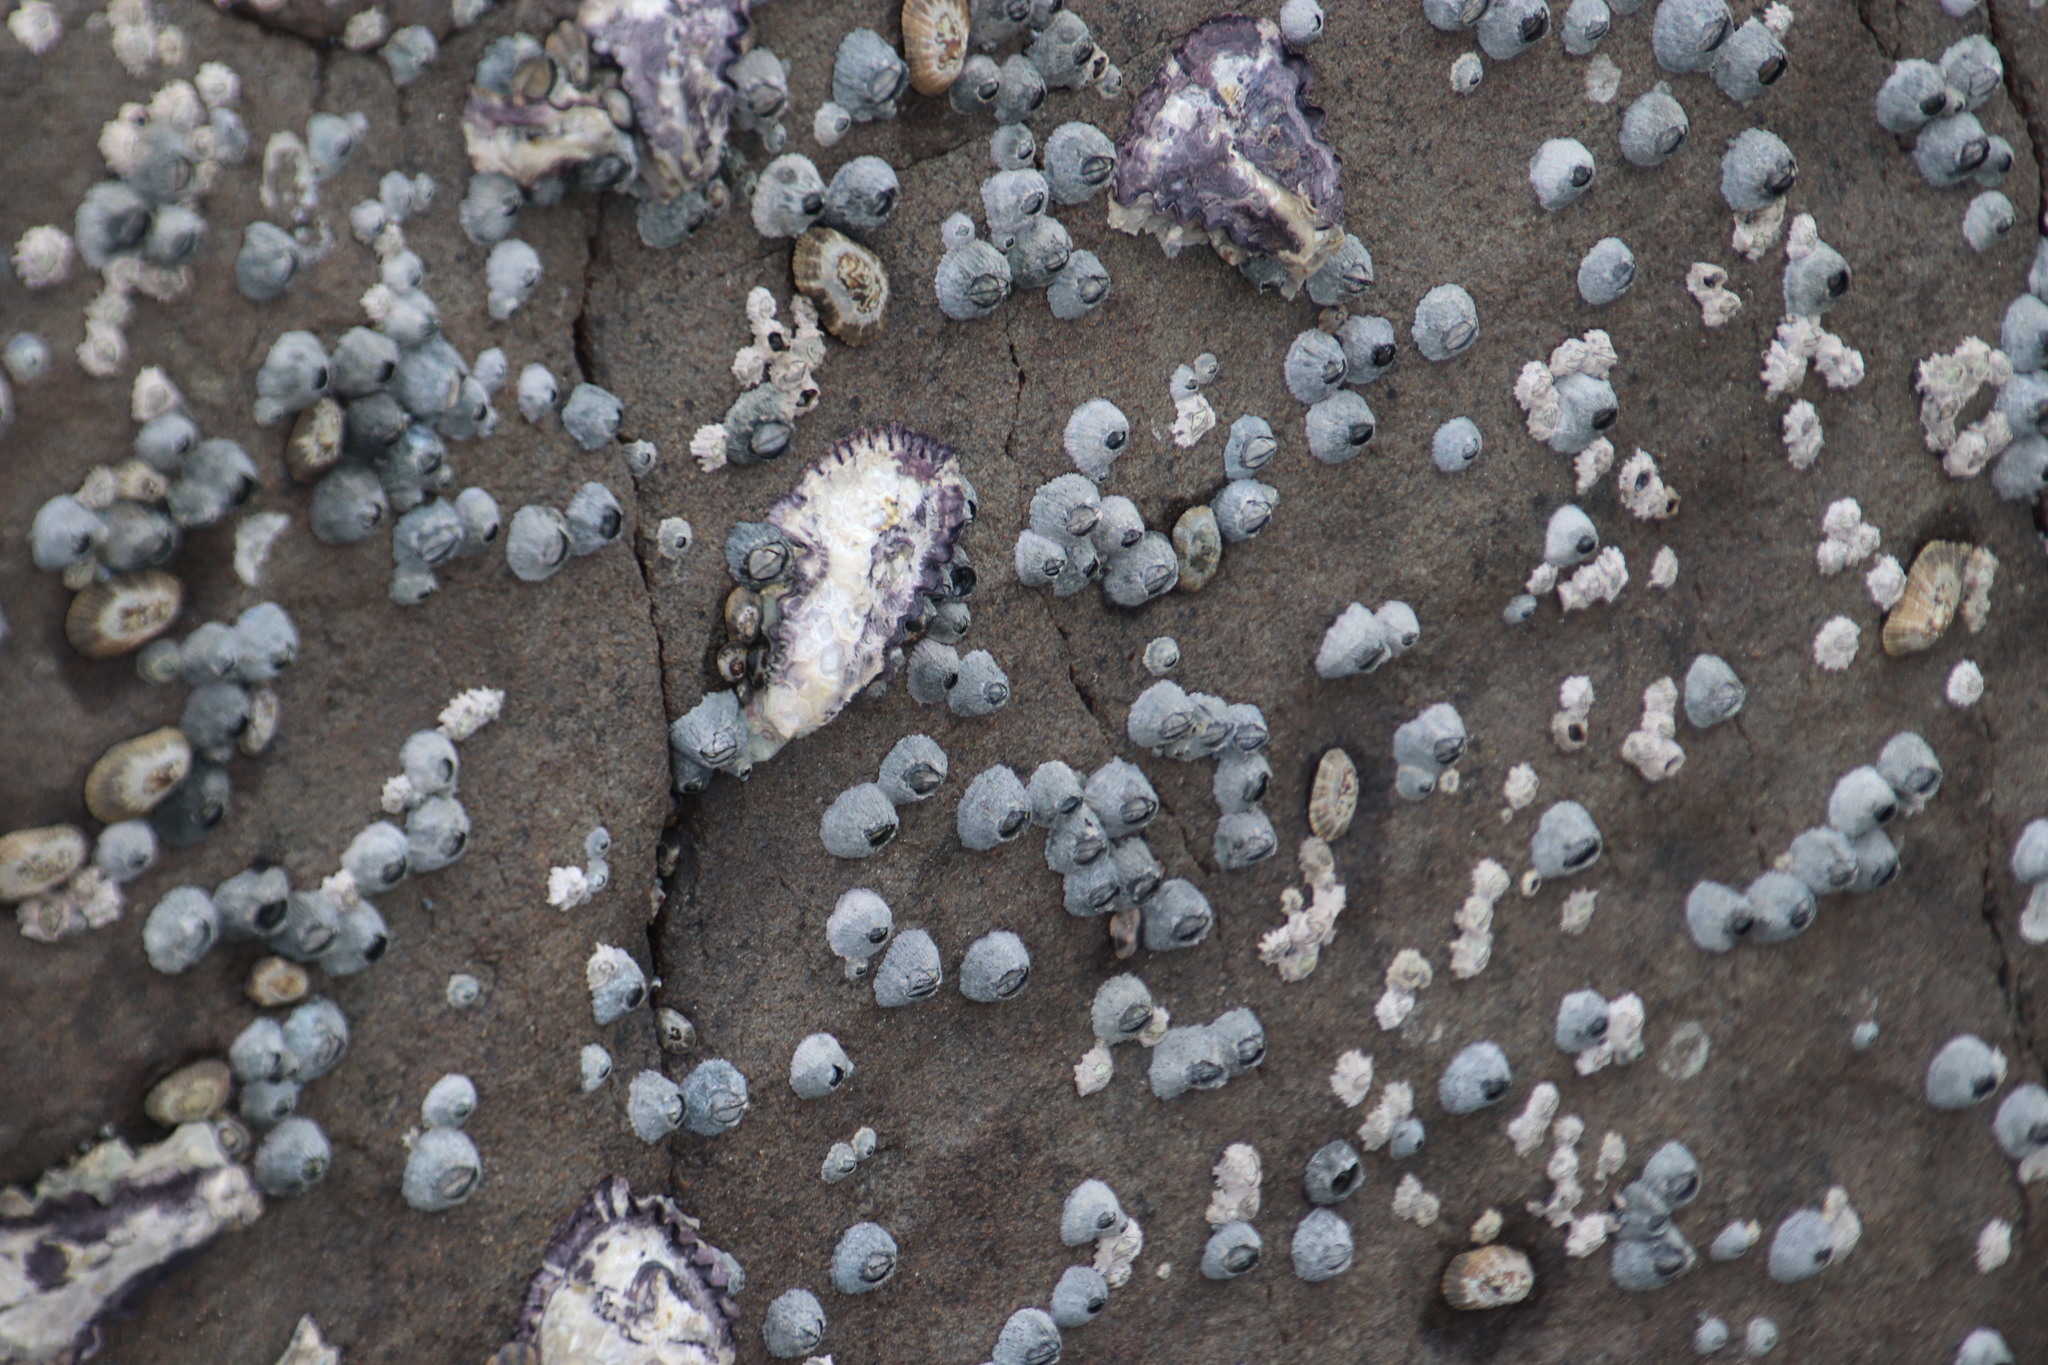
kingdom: Animalia
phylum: Arthropoda
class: Maxillopoda
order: Sessilia
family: Tetraclitidae
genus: Tetraclita
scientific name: Tetraclita serrata
